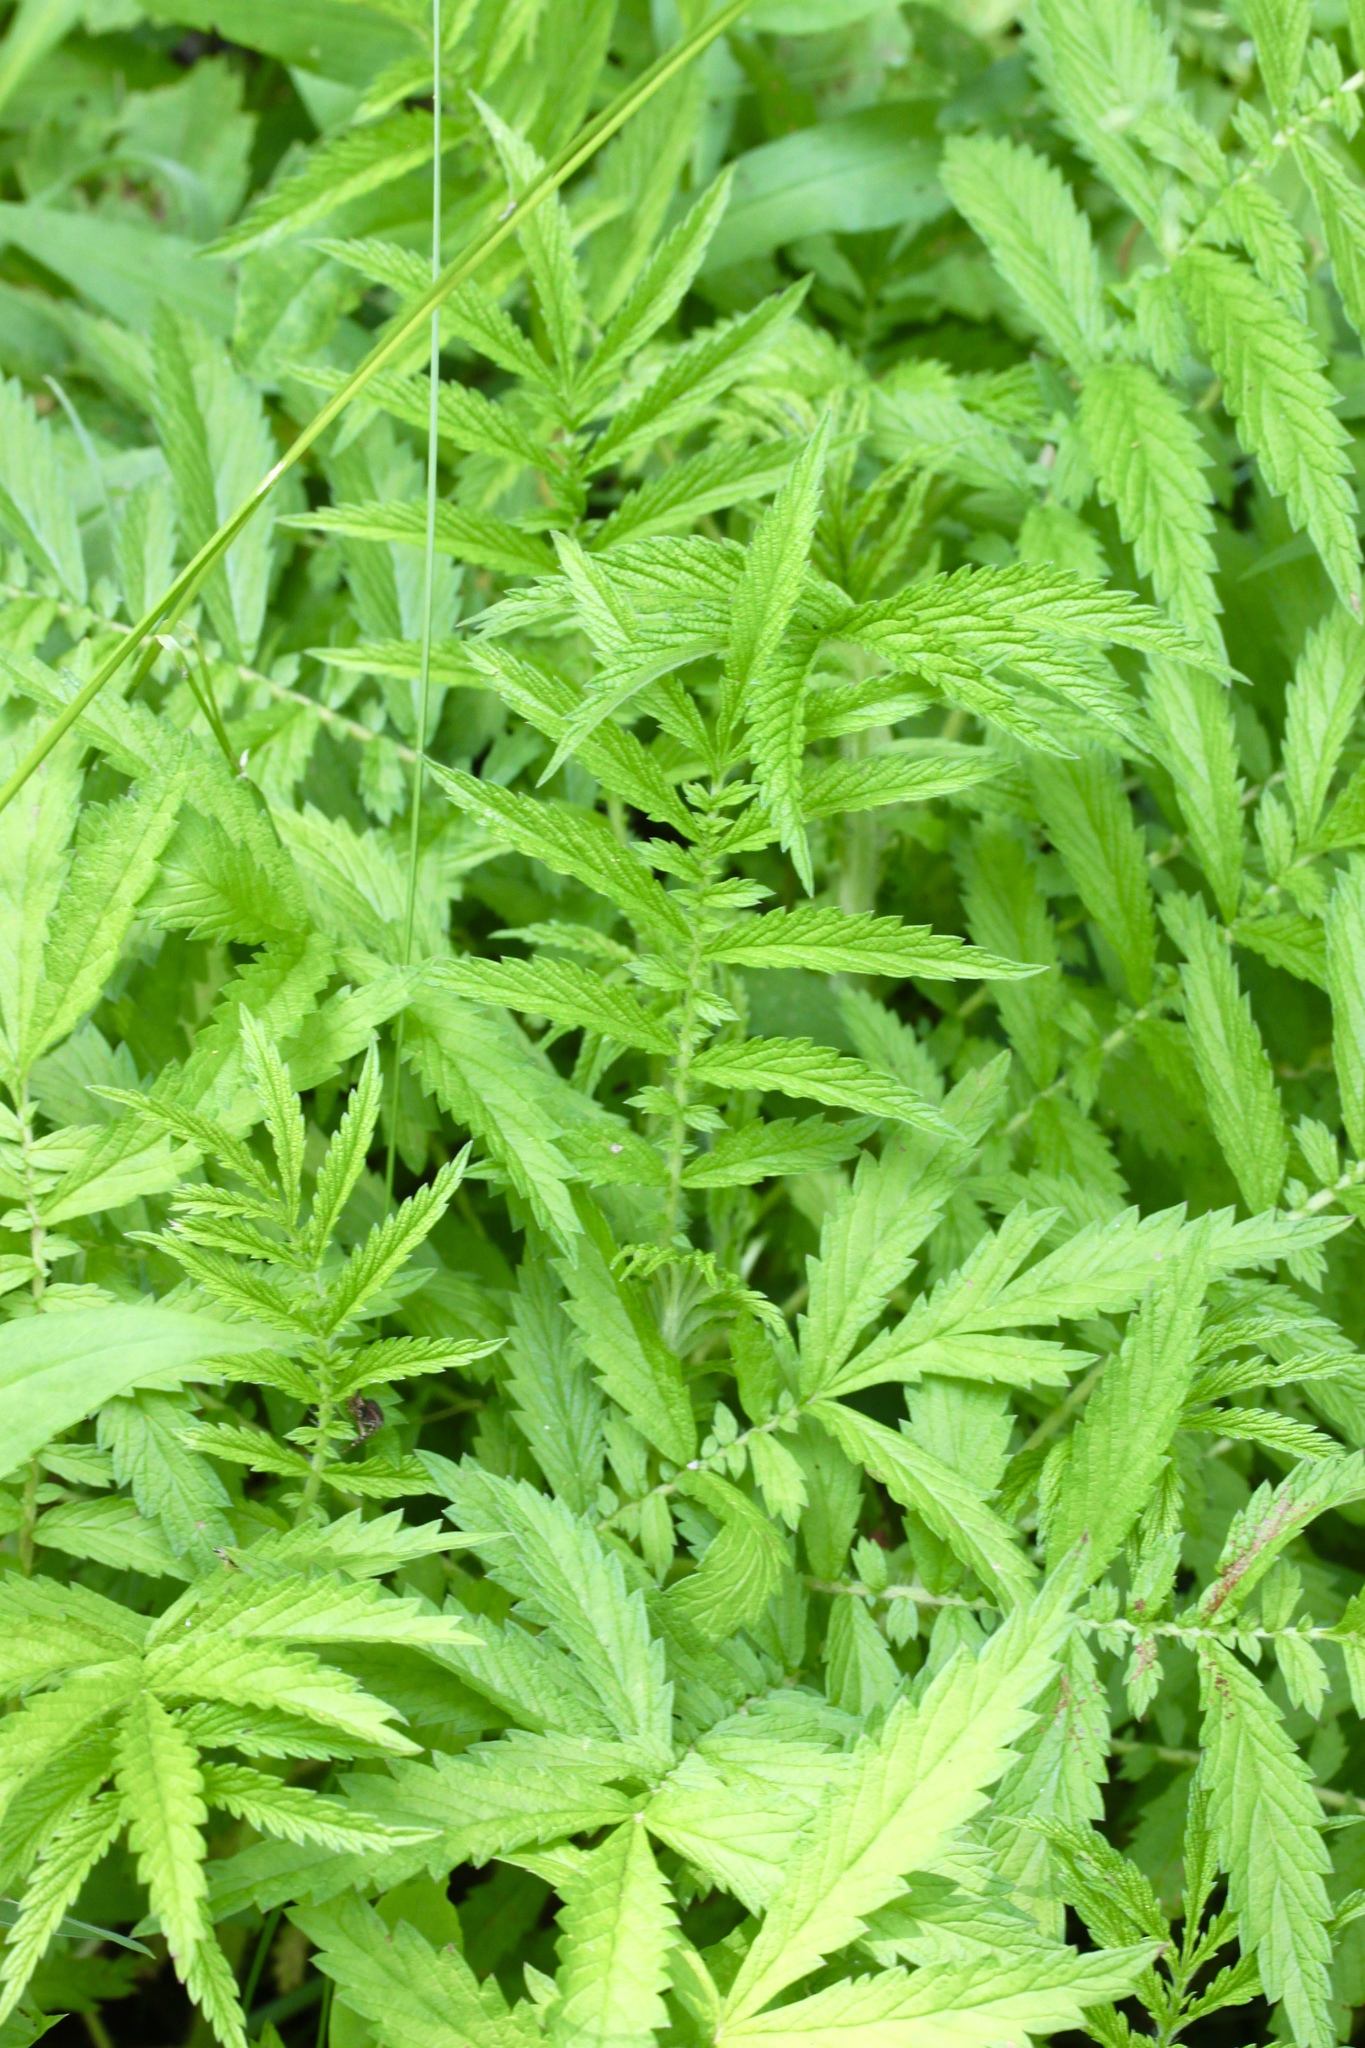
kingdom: Plantae
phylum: Tracheophyta
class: Magnoliopsida
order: Rosales
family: Rosaceae
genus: Agrimonia
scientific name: Agrimonia parviflora
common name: Harvest-lice
